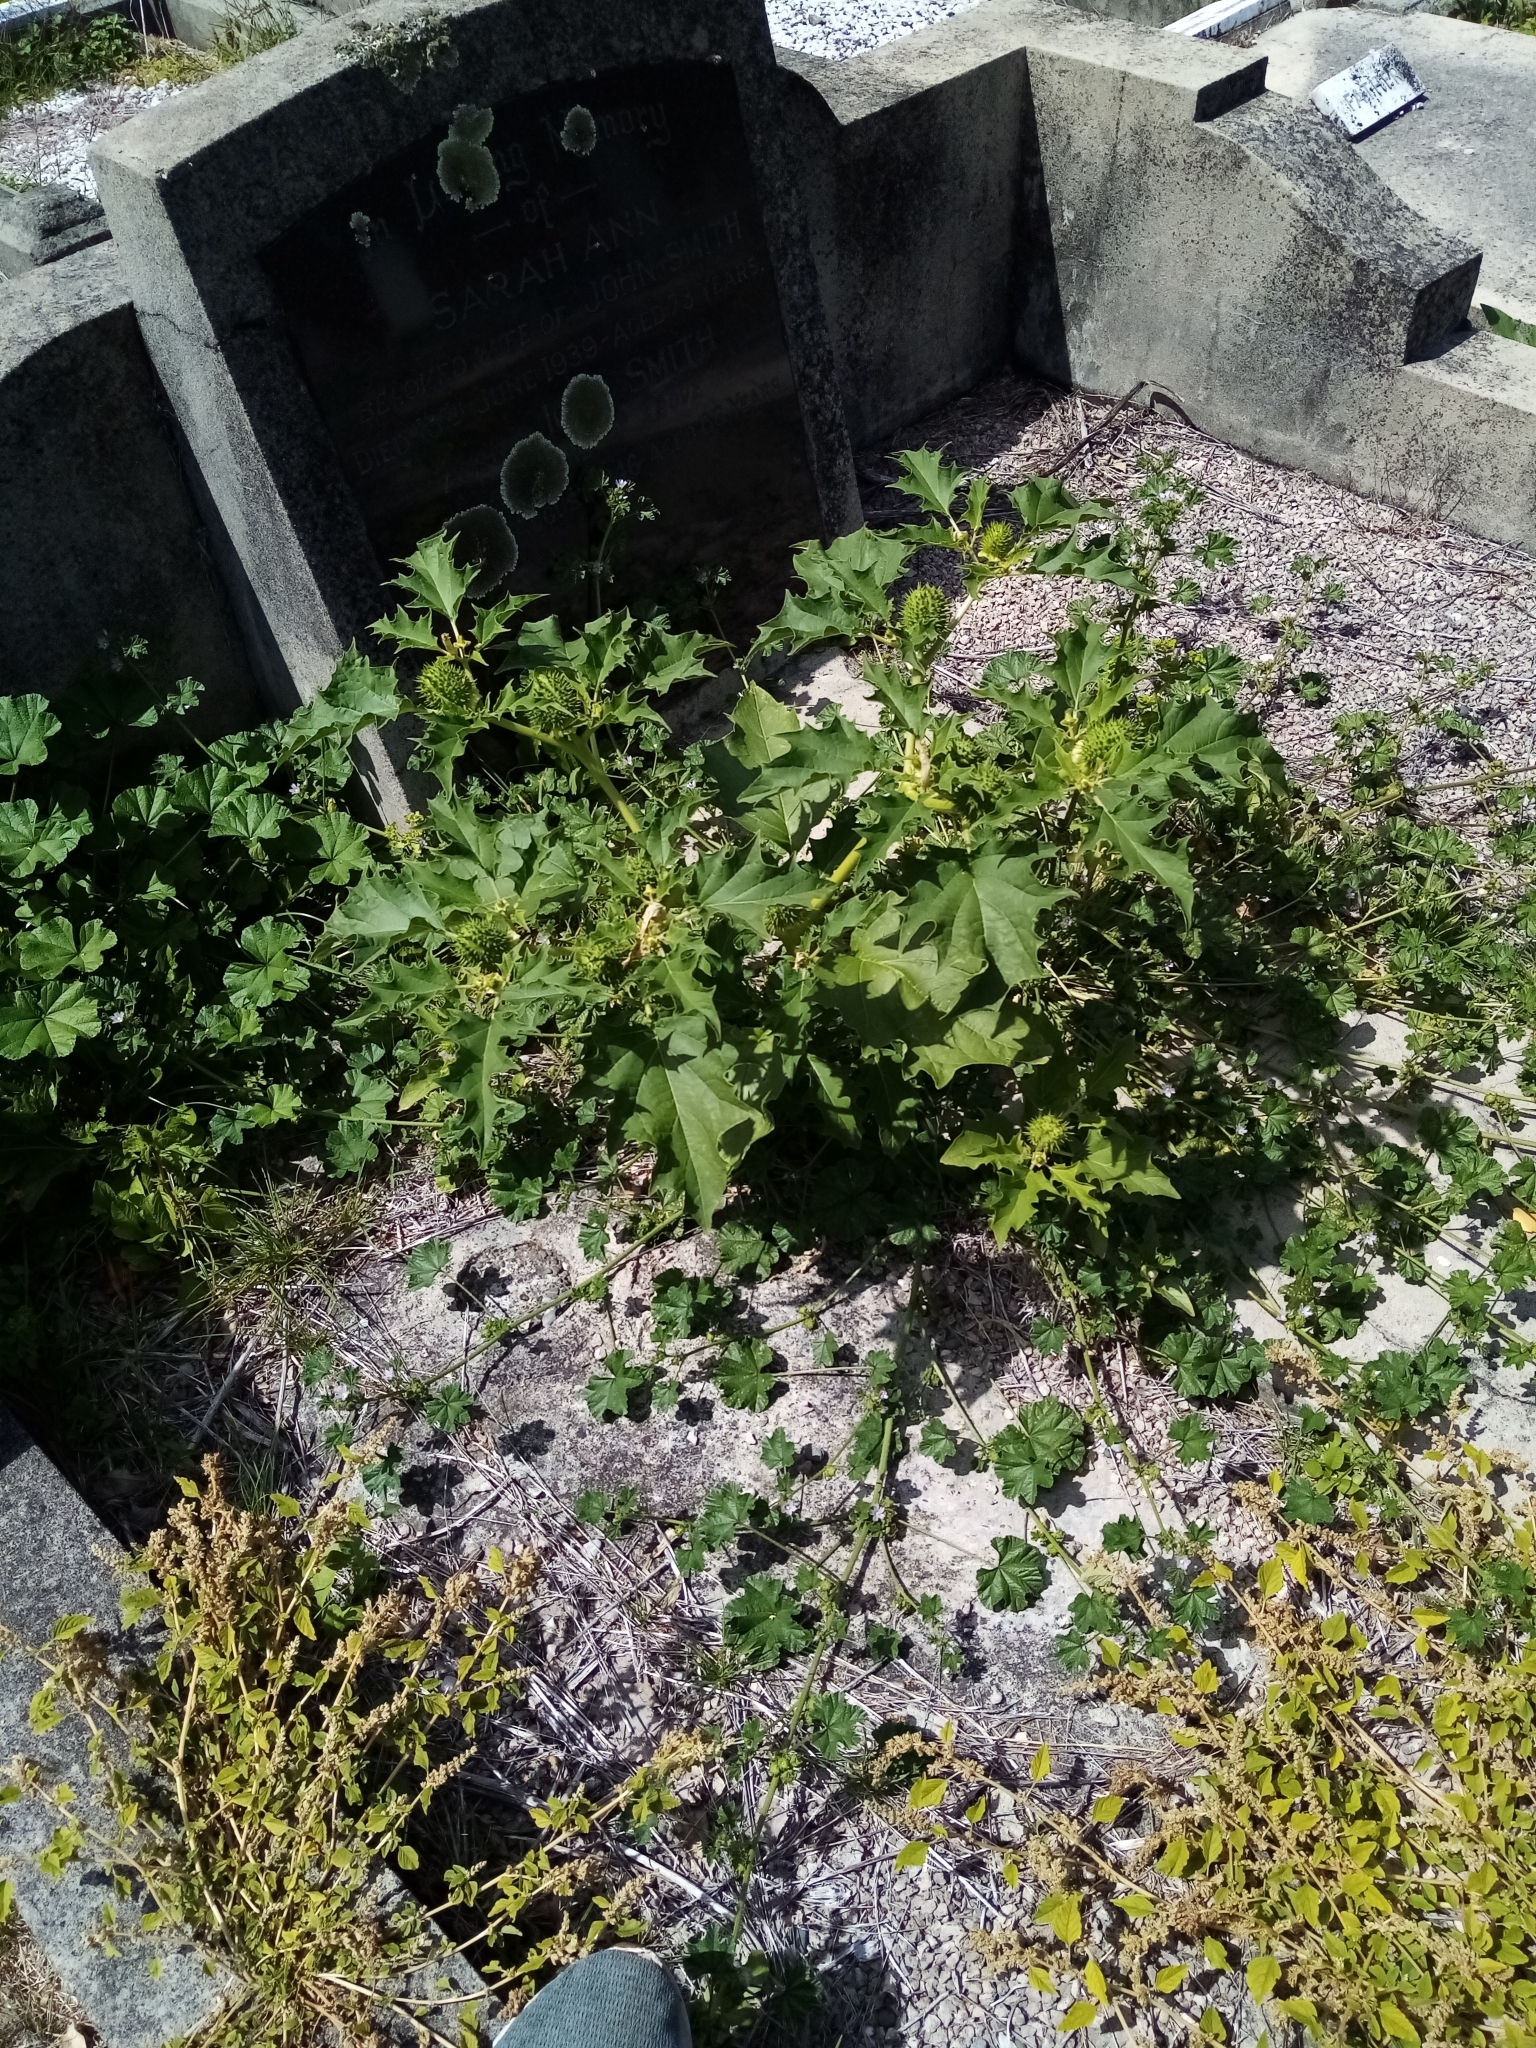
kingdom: Plantae
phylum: Tracheophyta
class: Magnoliopsida
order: Solanales
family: Solanaceae
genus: Datura
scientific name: Datura stramonium
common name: Thorn-apple
